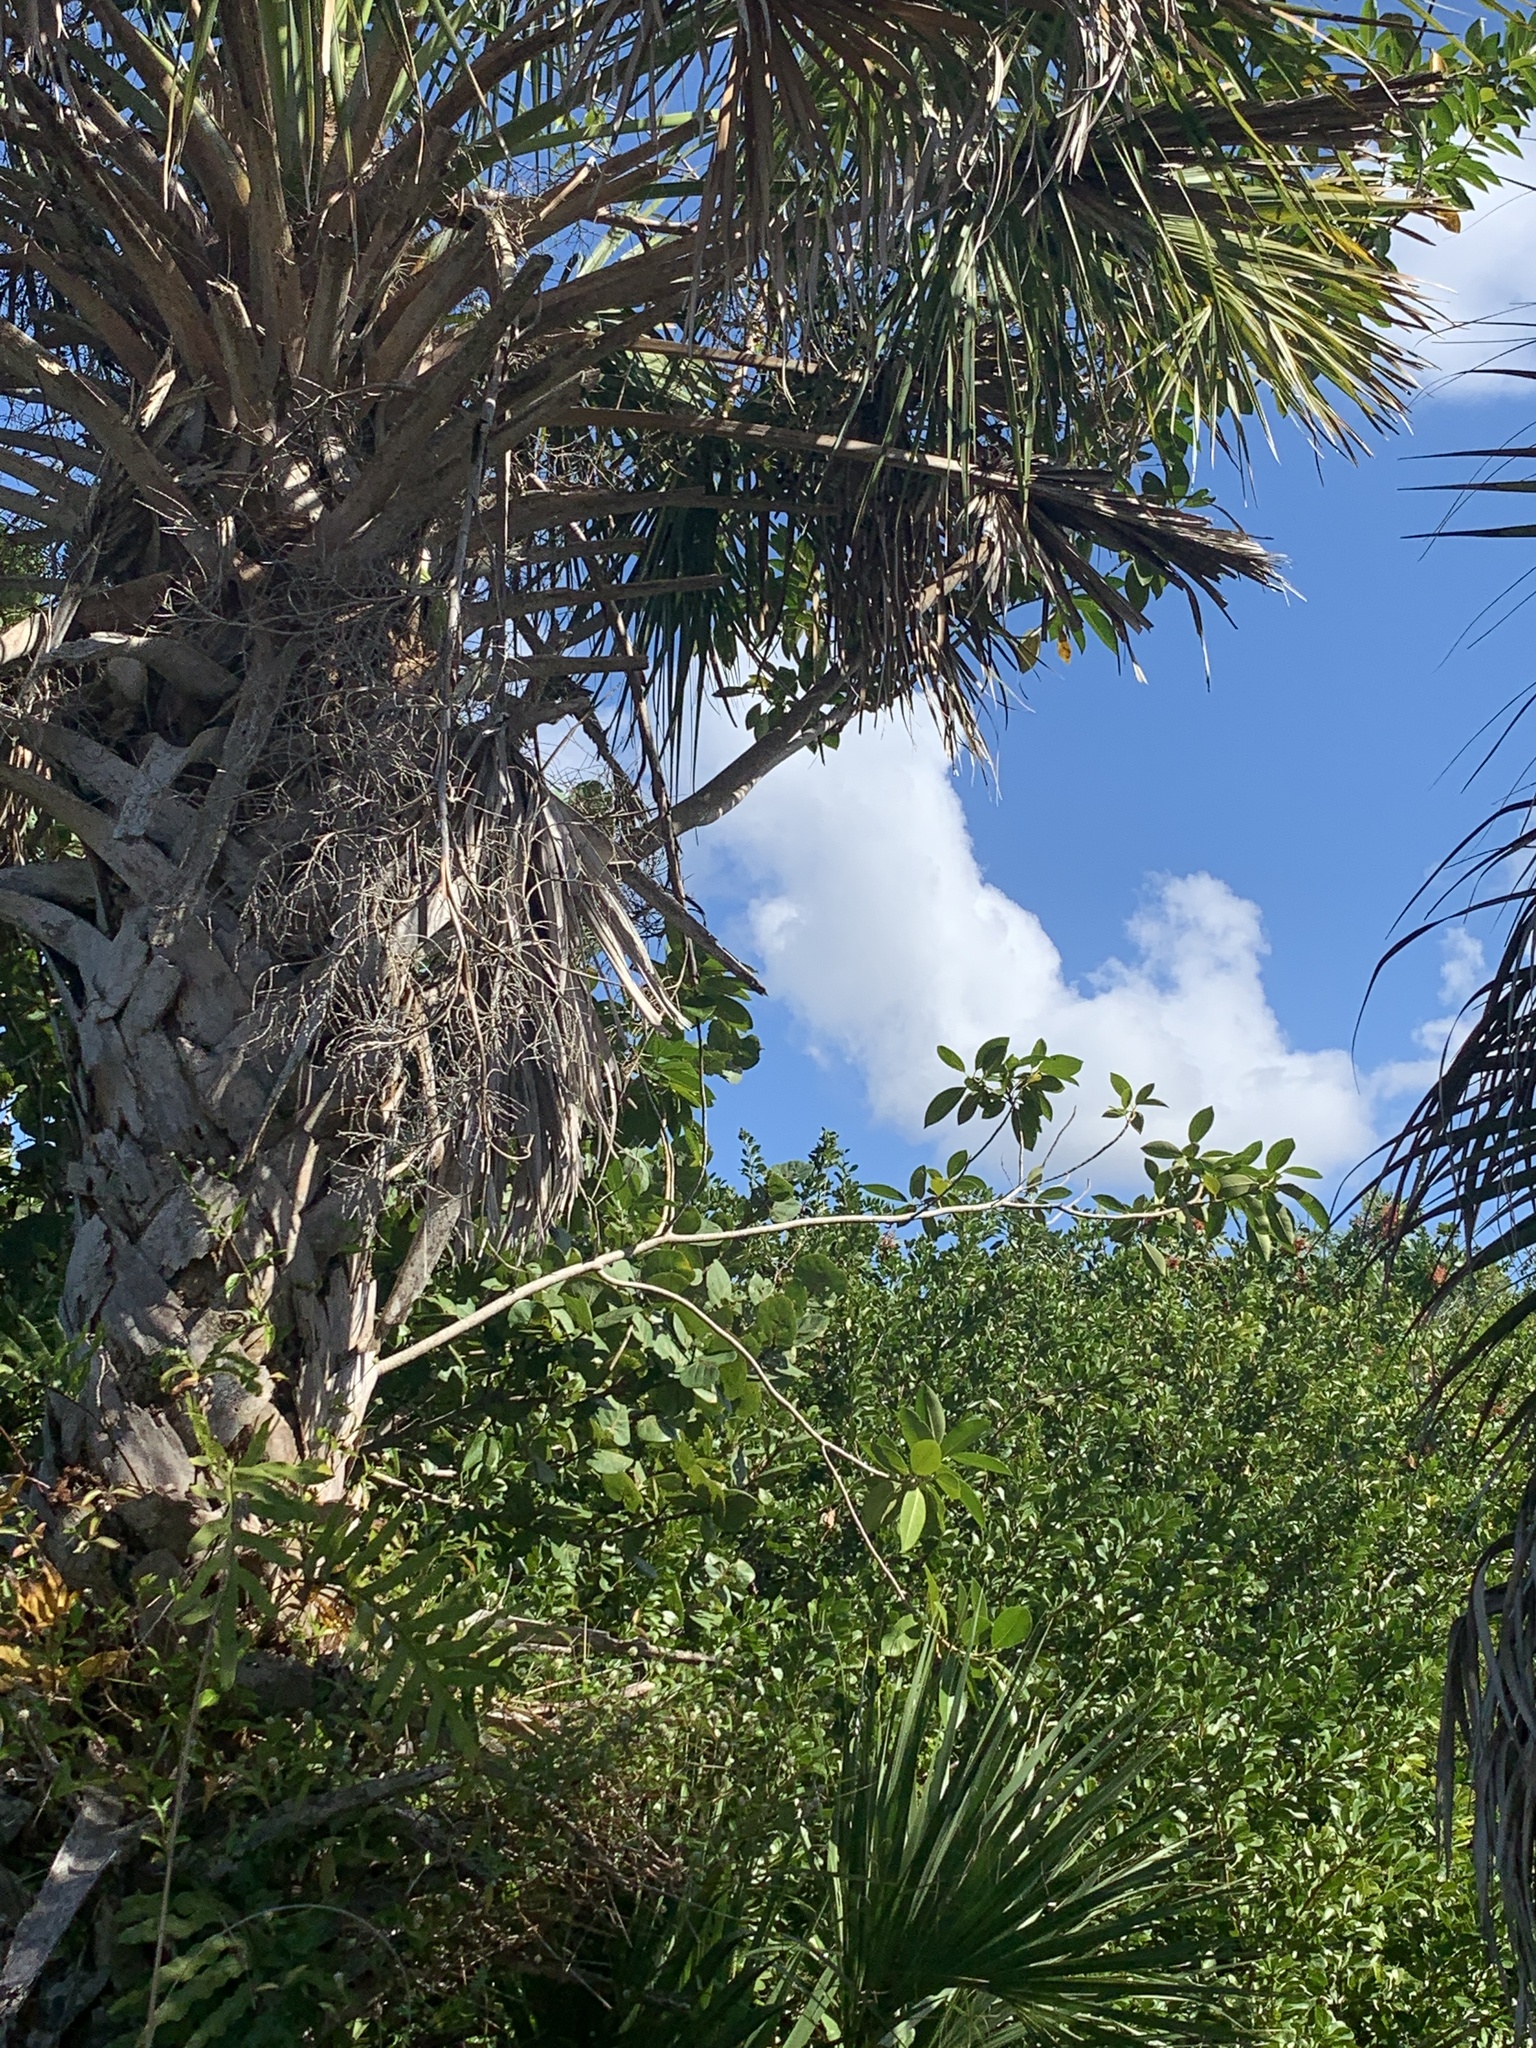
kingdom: Plantae
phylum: Tracheophyta
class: Magnoliopsida
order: Rosales
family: Moraceae
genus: Ficus
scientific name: Ficus aurea
